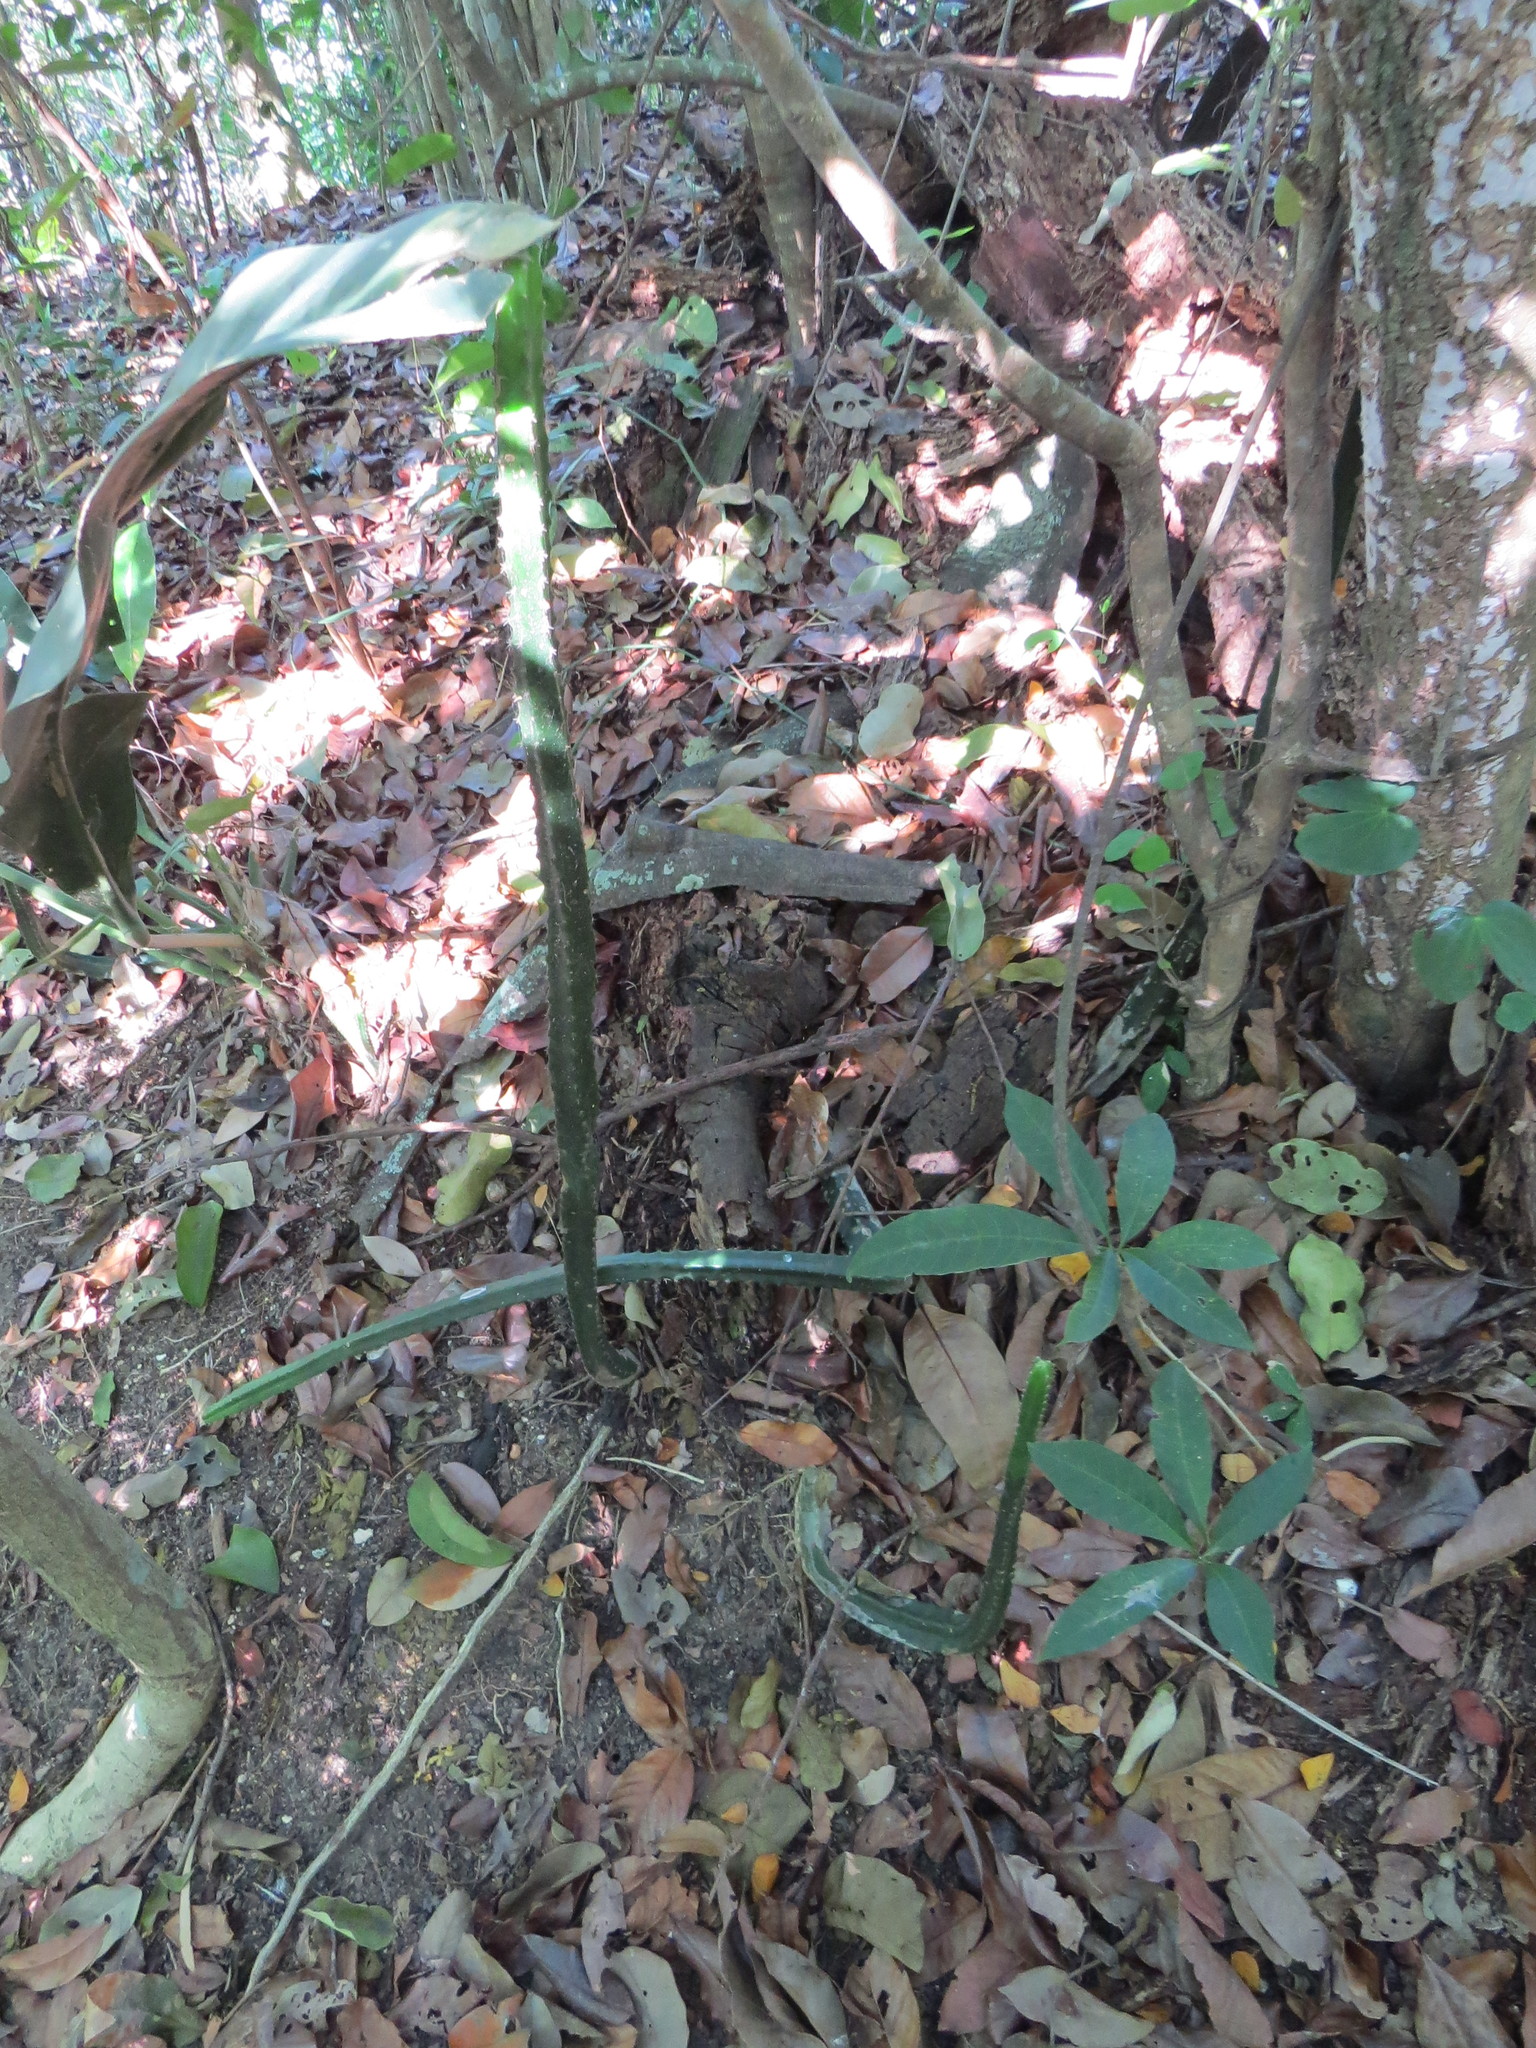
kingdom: Plantae
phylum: Tracheophyta
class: Magnoliopsida
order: Caryophyllales
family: Cactaceae
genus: Cereus
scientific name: Cereus fernambucensis
